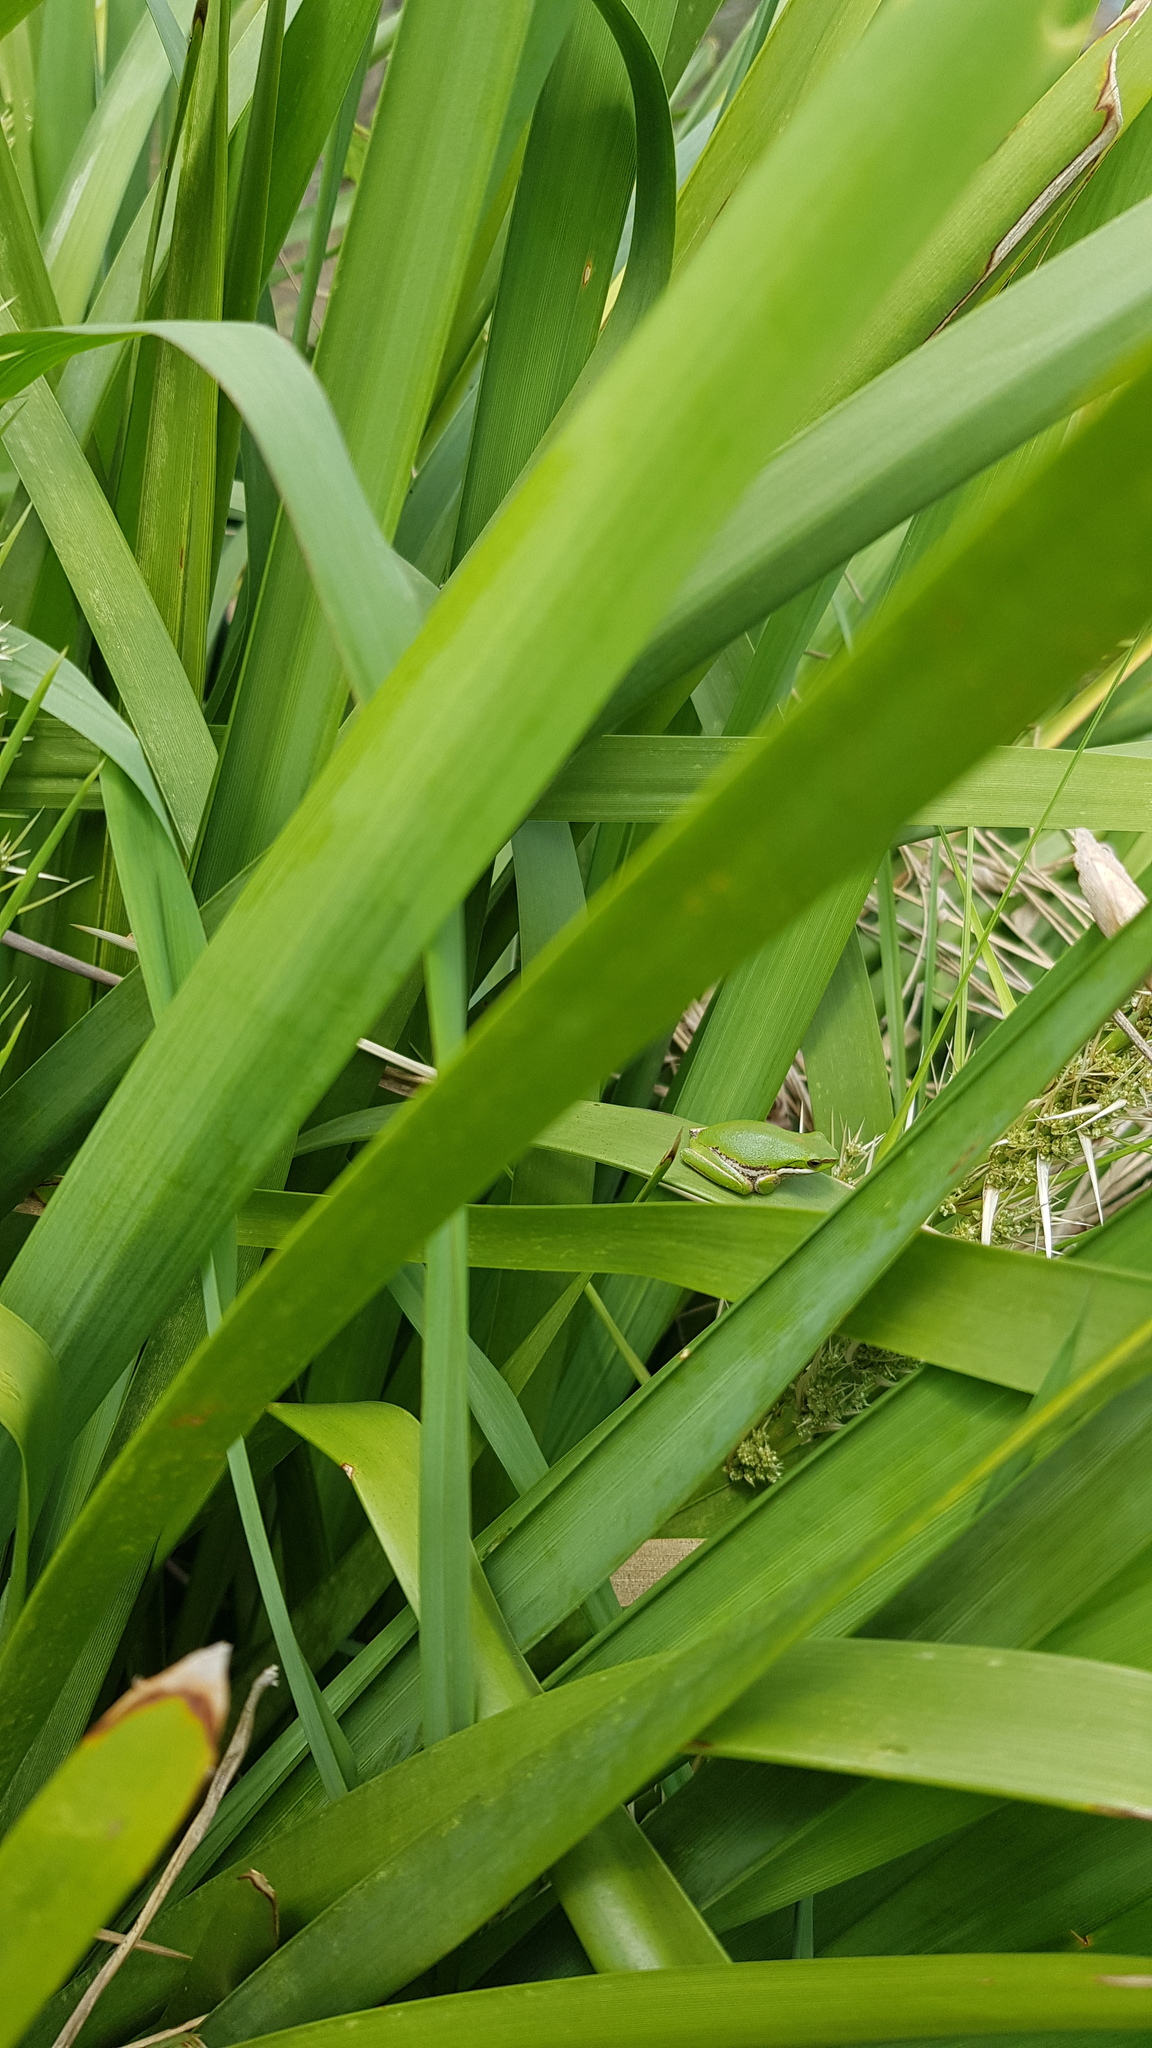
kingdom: Animalia
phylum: Chordata
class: Amphibia
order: Anura
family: Pelodryadidae
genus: Litoria
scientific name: Litoria fallax
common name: Eastern dwarf treefrog
